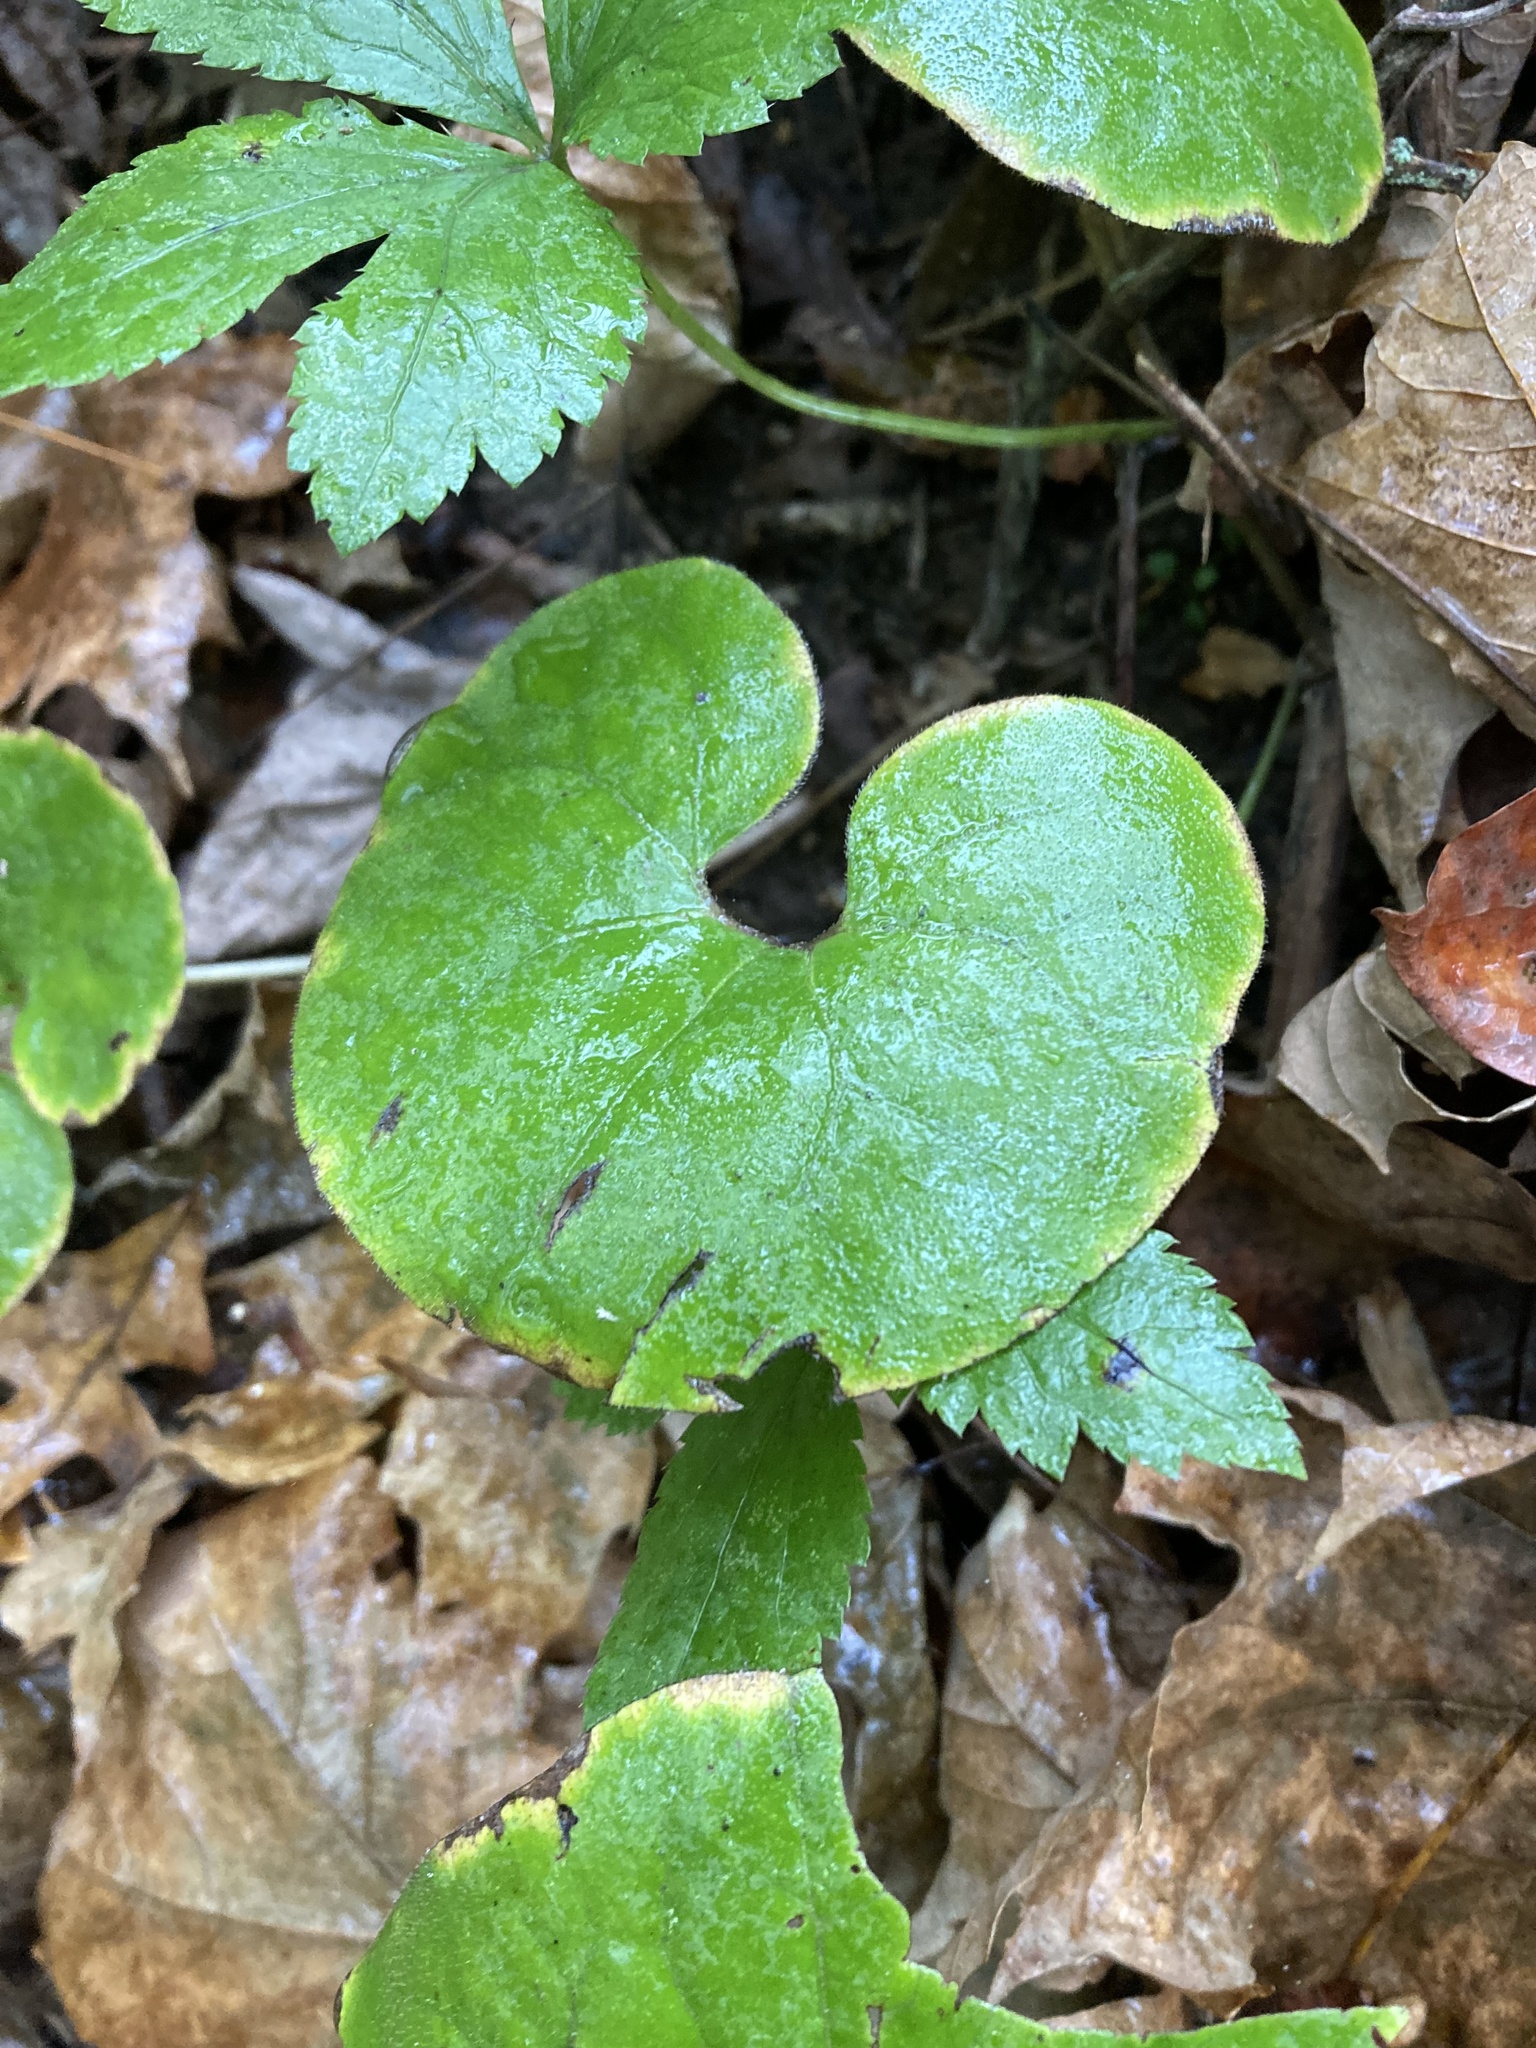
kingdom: Plantae
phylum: Tracheophyta
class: Magnoliopsida
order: Piperales
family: Aristolochiaceae
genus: Asarum
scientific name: Asarum canadense
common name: Wild ginger
